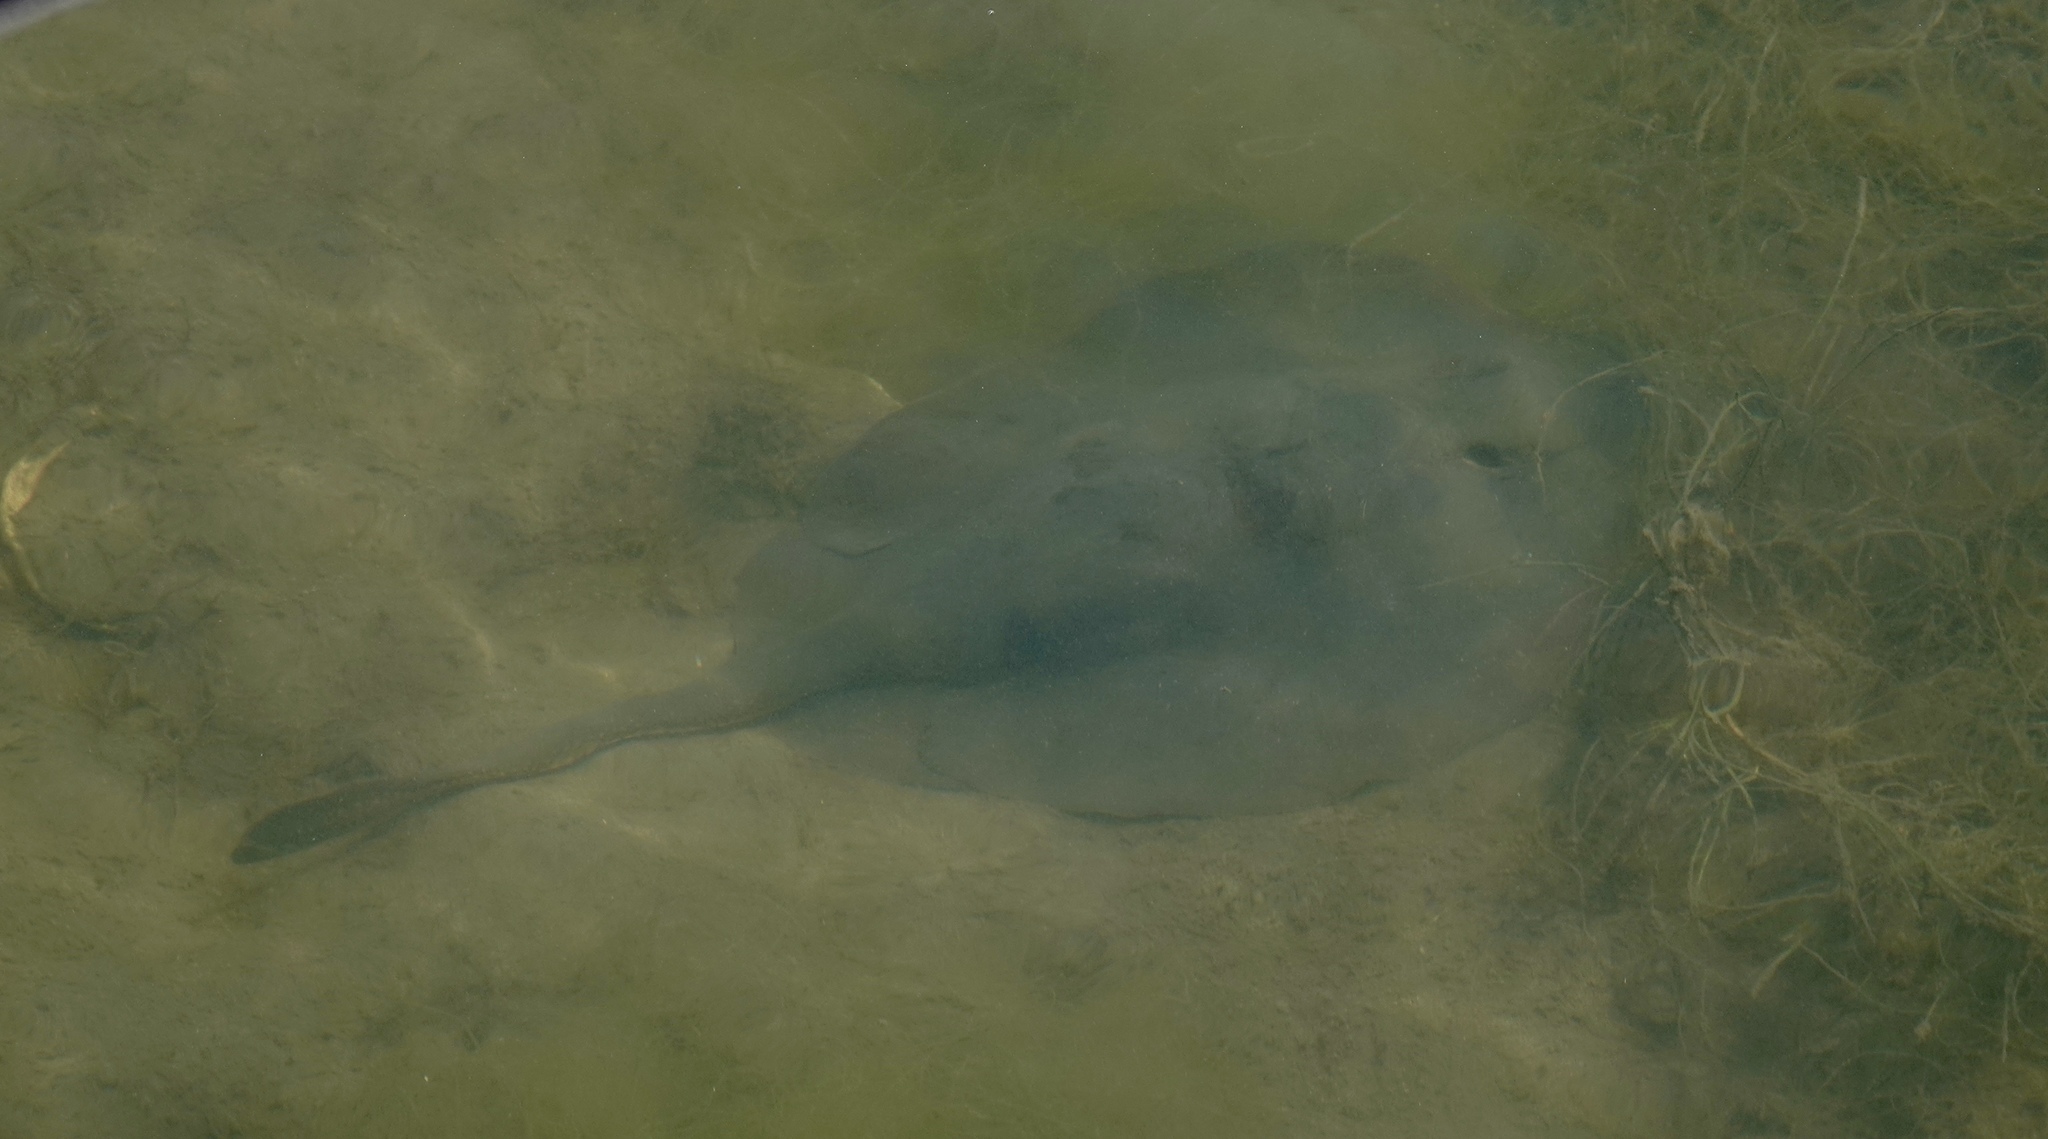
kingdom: Animalia
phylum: Chordata
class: Elasmobranchii
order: Myliobatiformes
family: Urolophidae
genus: Urolophus
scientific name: Urolophus halleri
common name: Round stingray
